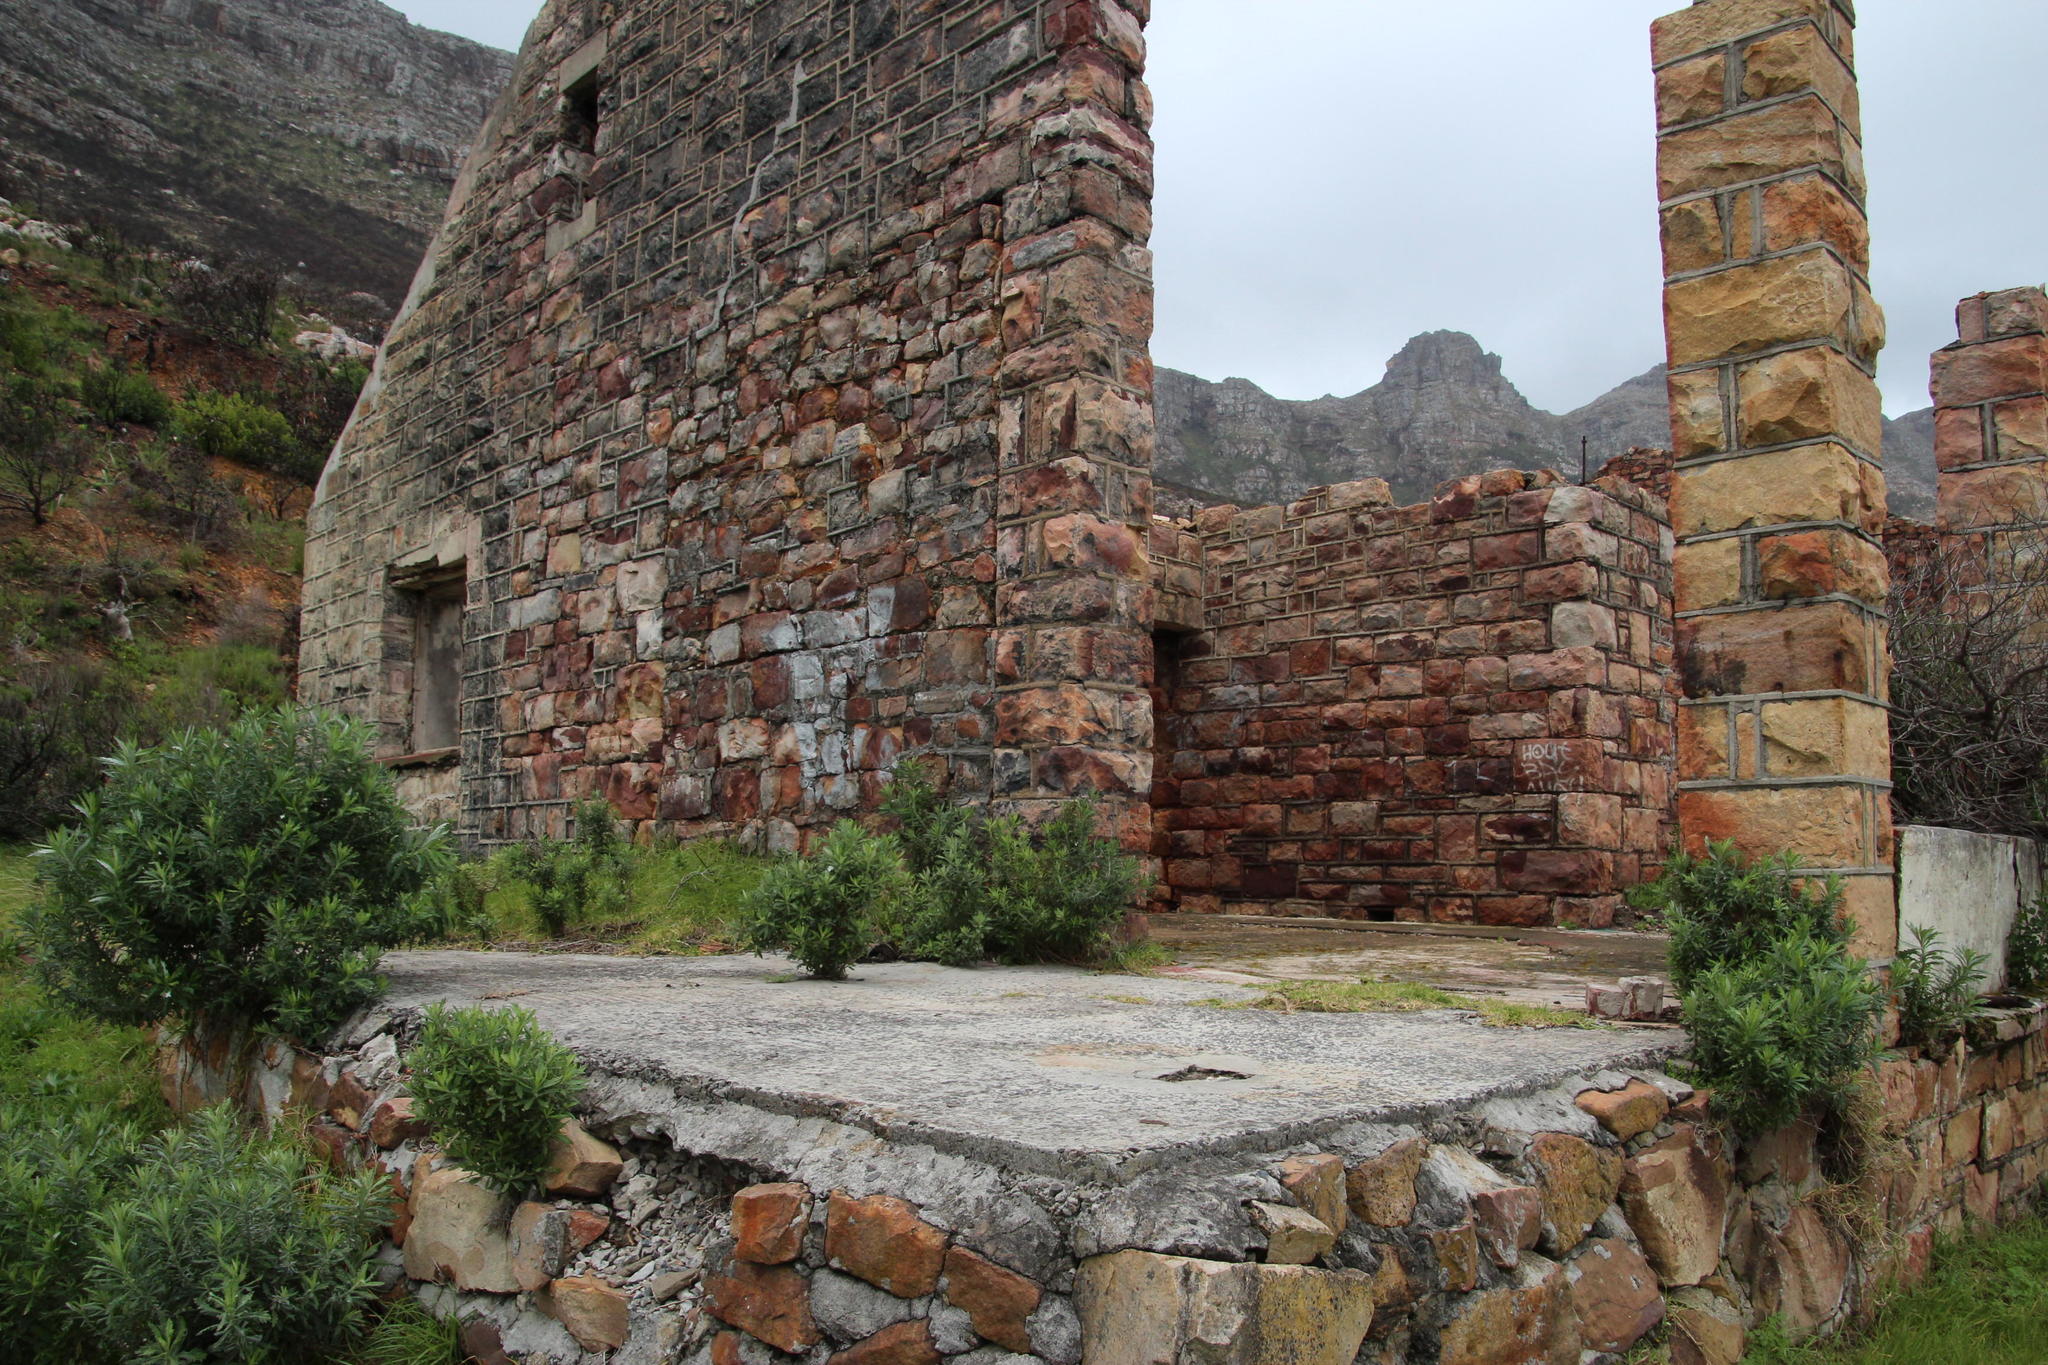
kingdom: Plantae
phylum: Tracheophyta
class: Magnoliopsida
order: Asterales
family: Asteraceae
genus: Senecio
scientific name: Senecio pterophorus
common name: Shoddy ragwort
